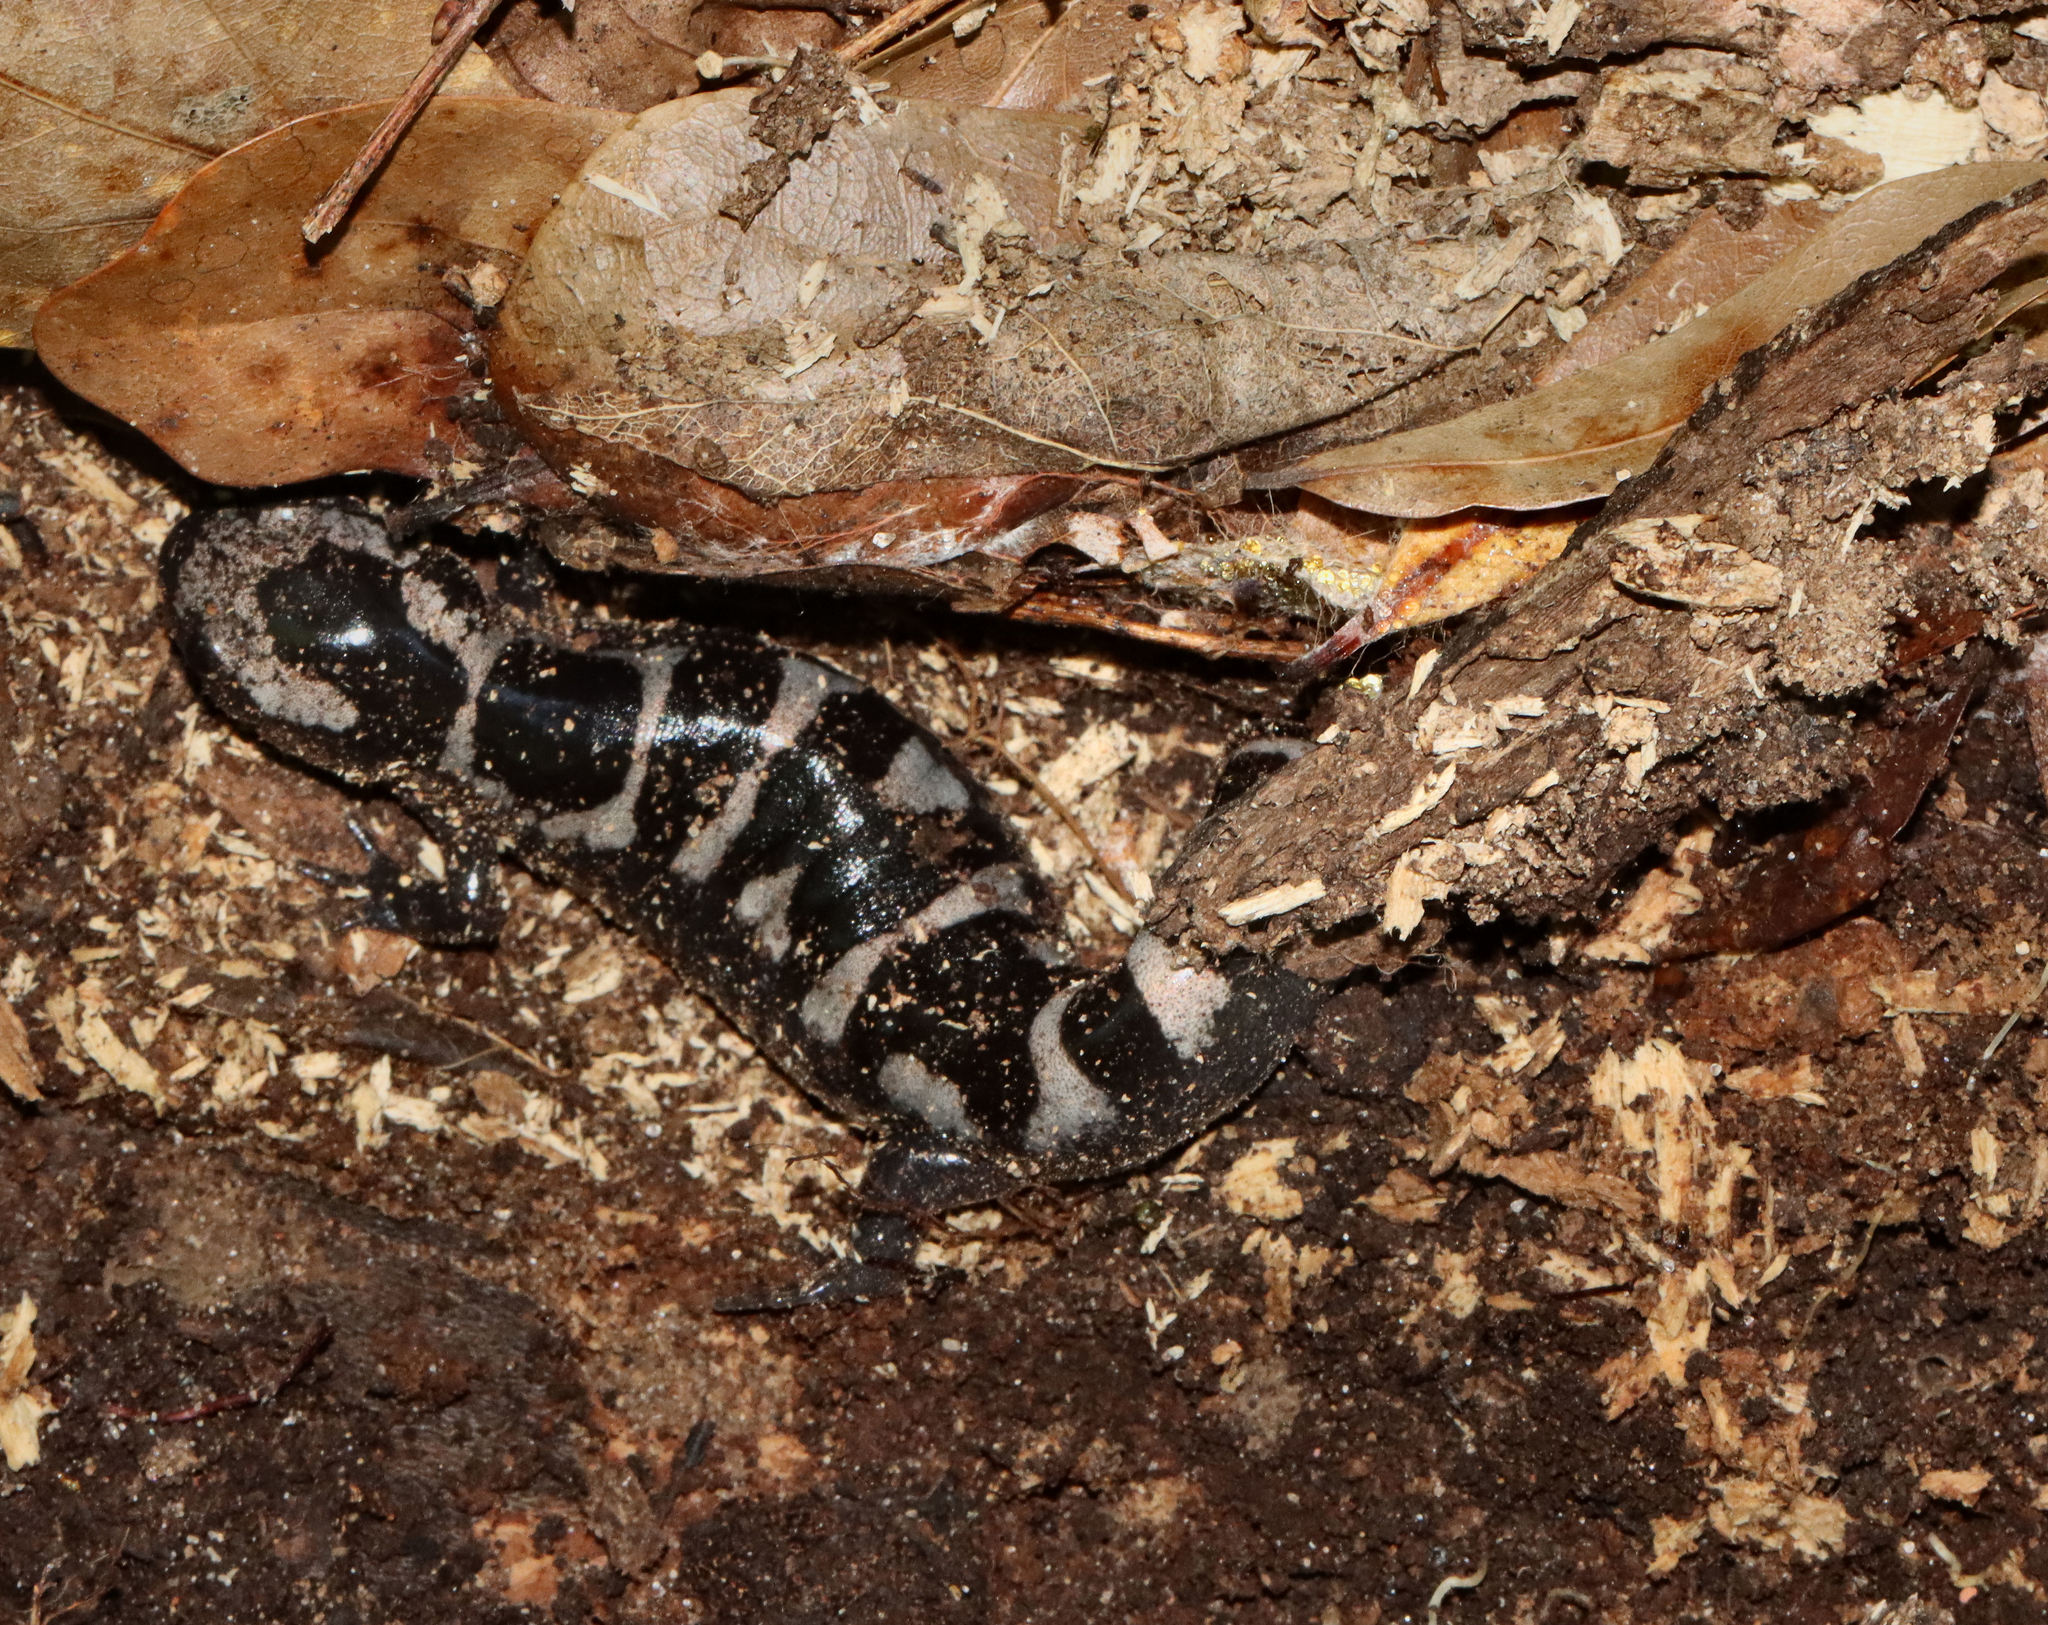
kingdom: Animalia
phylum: Chordata
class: Amphibia
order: Caudata
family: Ambystomatidae
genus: Ambystoma
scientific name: Ambystoma opacum
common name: Marbled salamander
